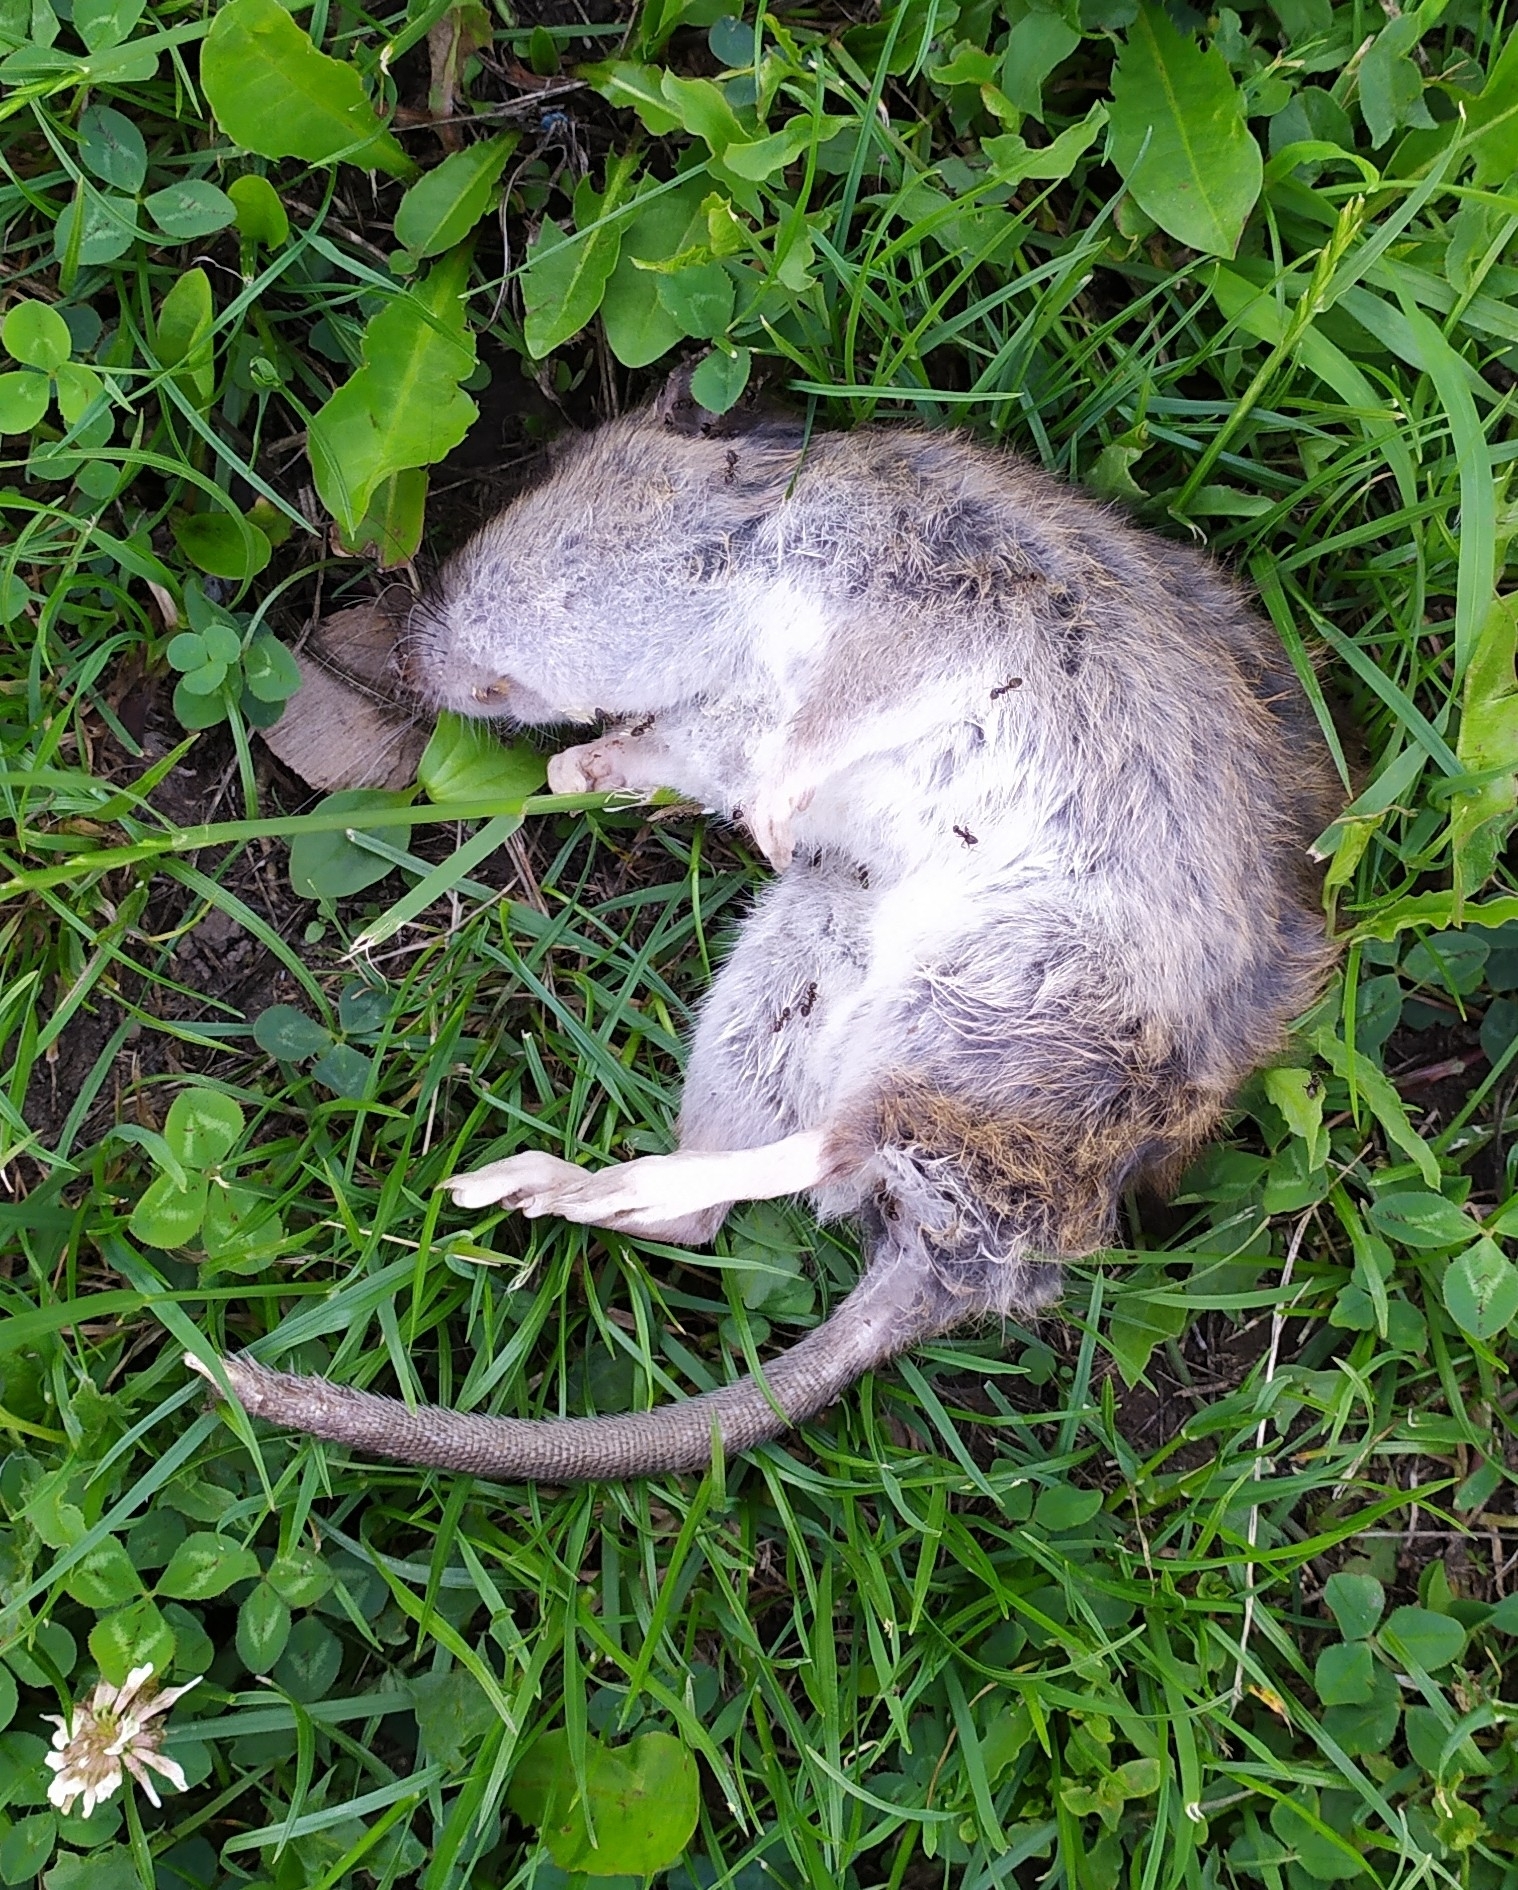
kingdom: Animalia
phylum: Chordata
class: Mammalia
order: Rodentia
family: Muridae
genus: Rattus
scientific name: Rattus norvegicus
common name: Brown rat
